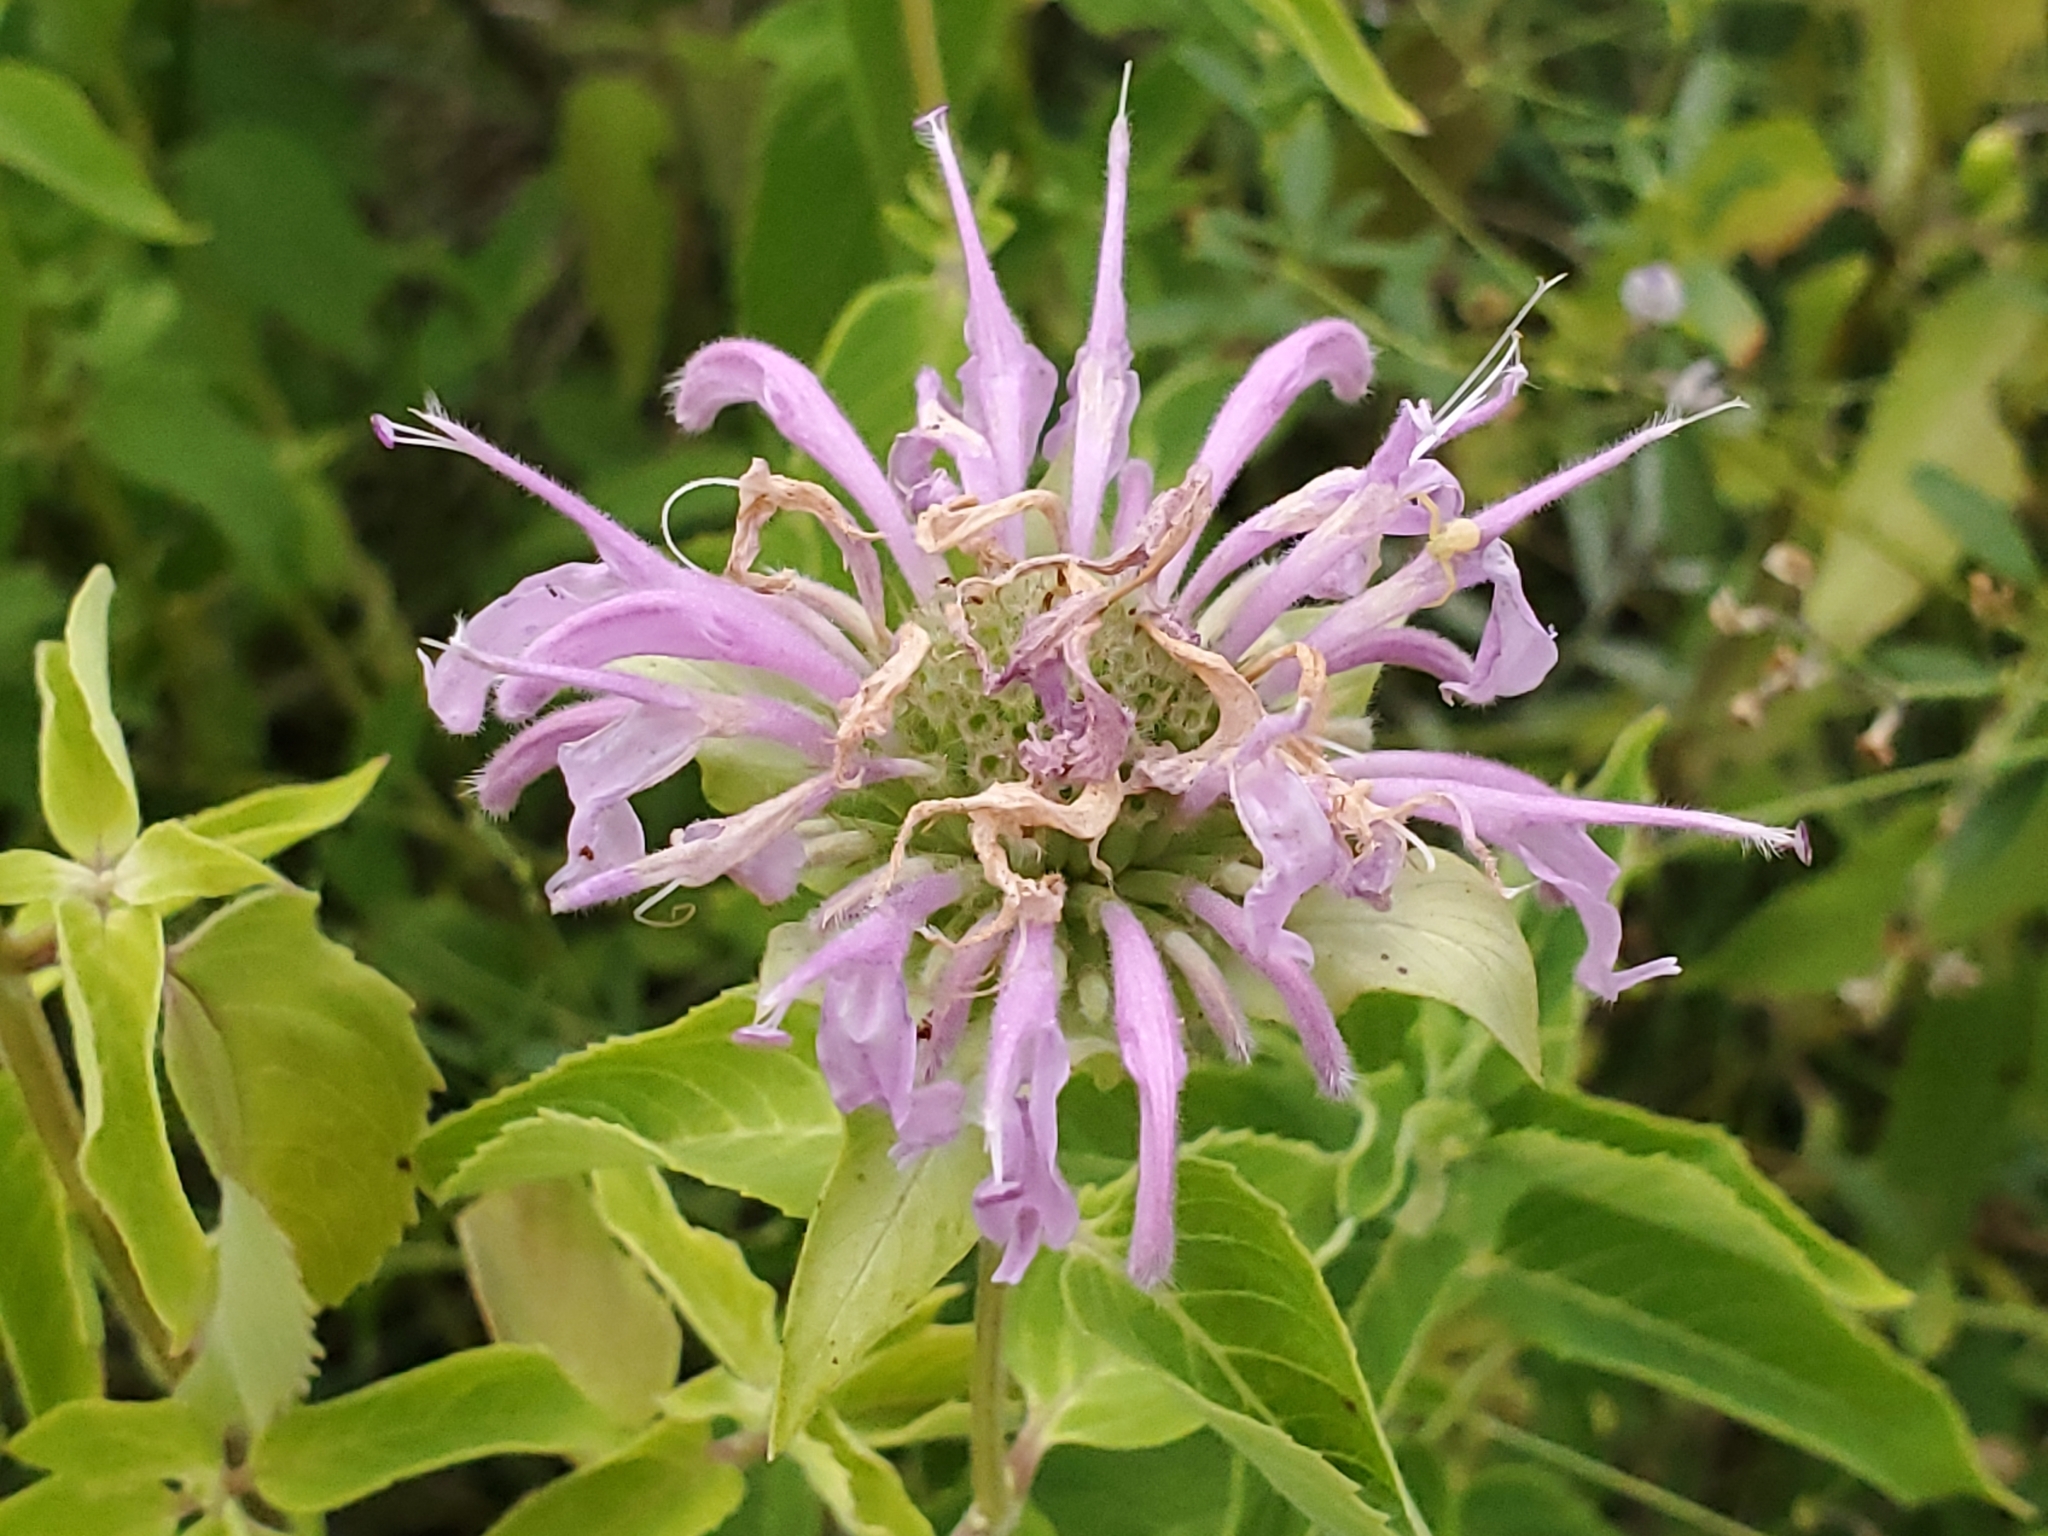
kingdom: Plantae
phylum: Tracheophyta
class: Magnoliopsida
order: Lamiales
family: Lamiaceae
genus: Monarda
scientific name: Monarda fistulosa
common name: Purple beebalm
